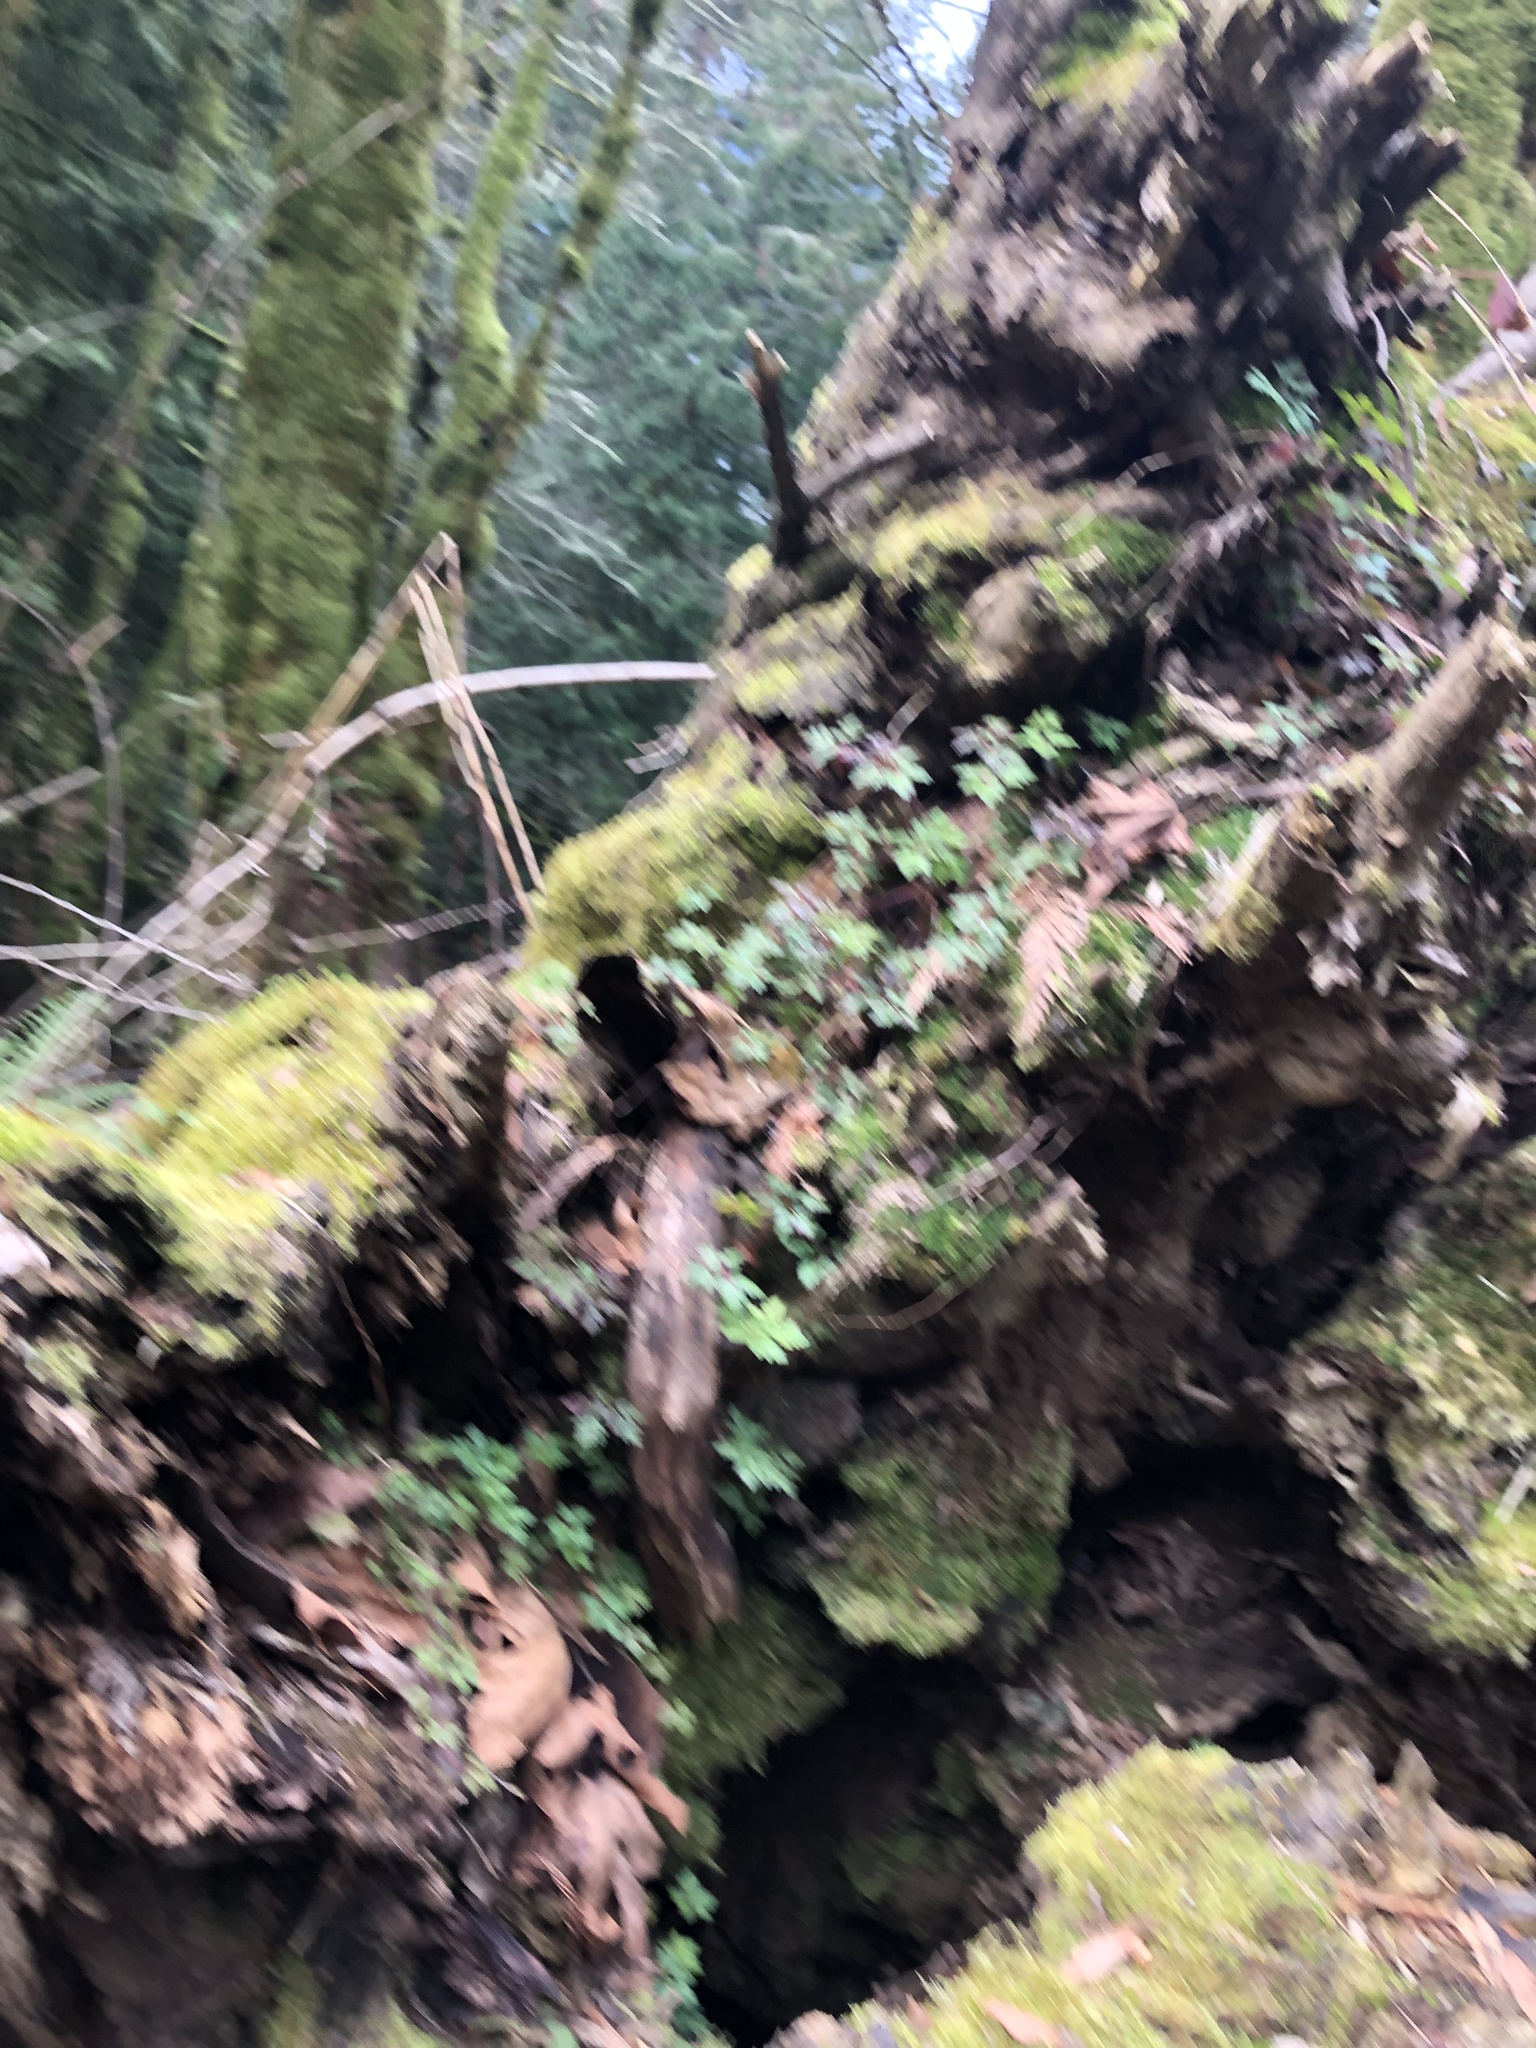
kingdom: Plantae
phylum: Tracheophyta
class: Magnoliopsida
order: Geraniales
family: Geraniaceae
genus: Geranium
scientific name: Geranium robertianum
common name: Herb-robert
